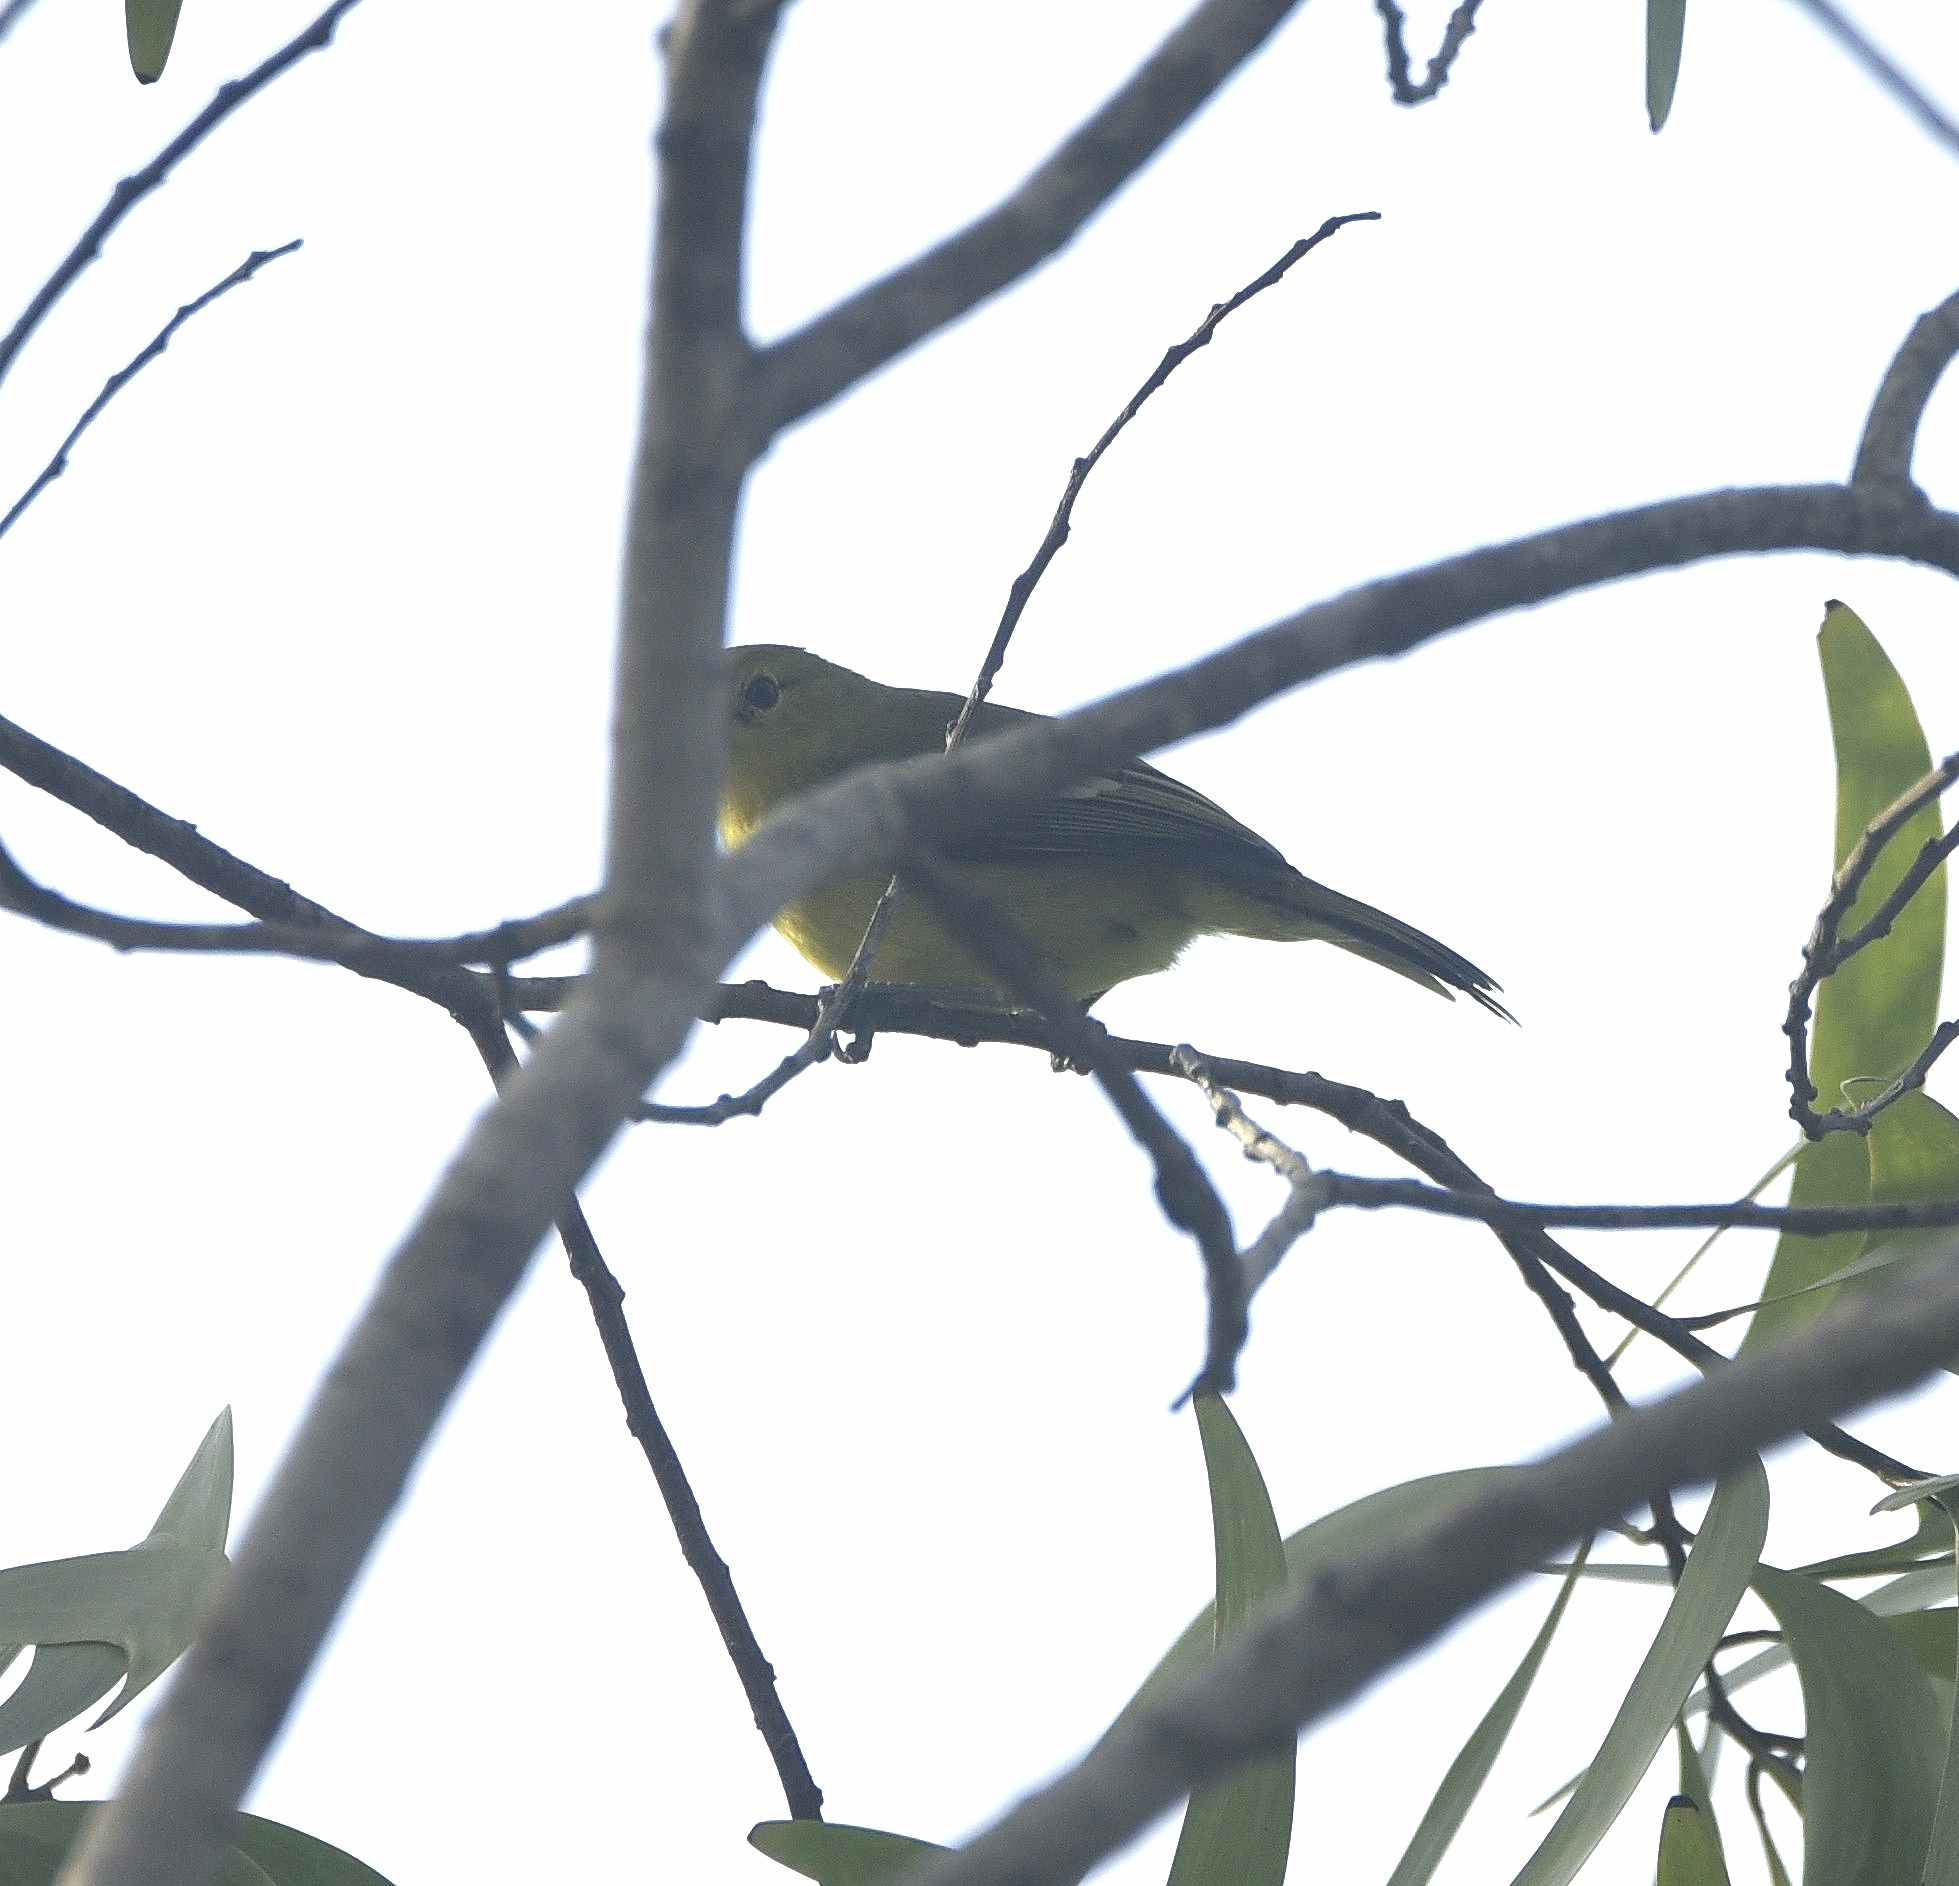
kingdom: Animalia
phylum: Chordata
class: Aves
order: Passeriformes
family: Aegithinidae
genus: Aegithina
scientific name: Aegithina tiphia
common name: Common iora
